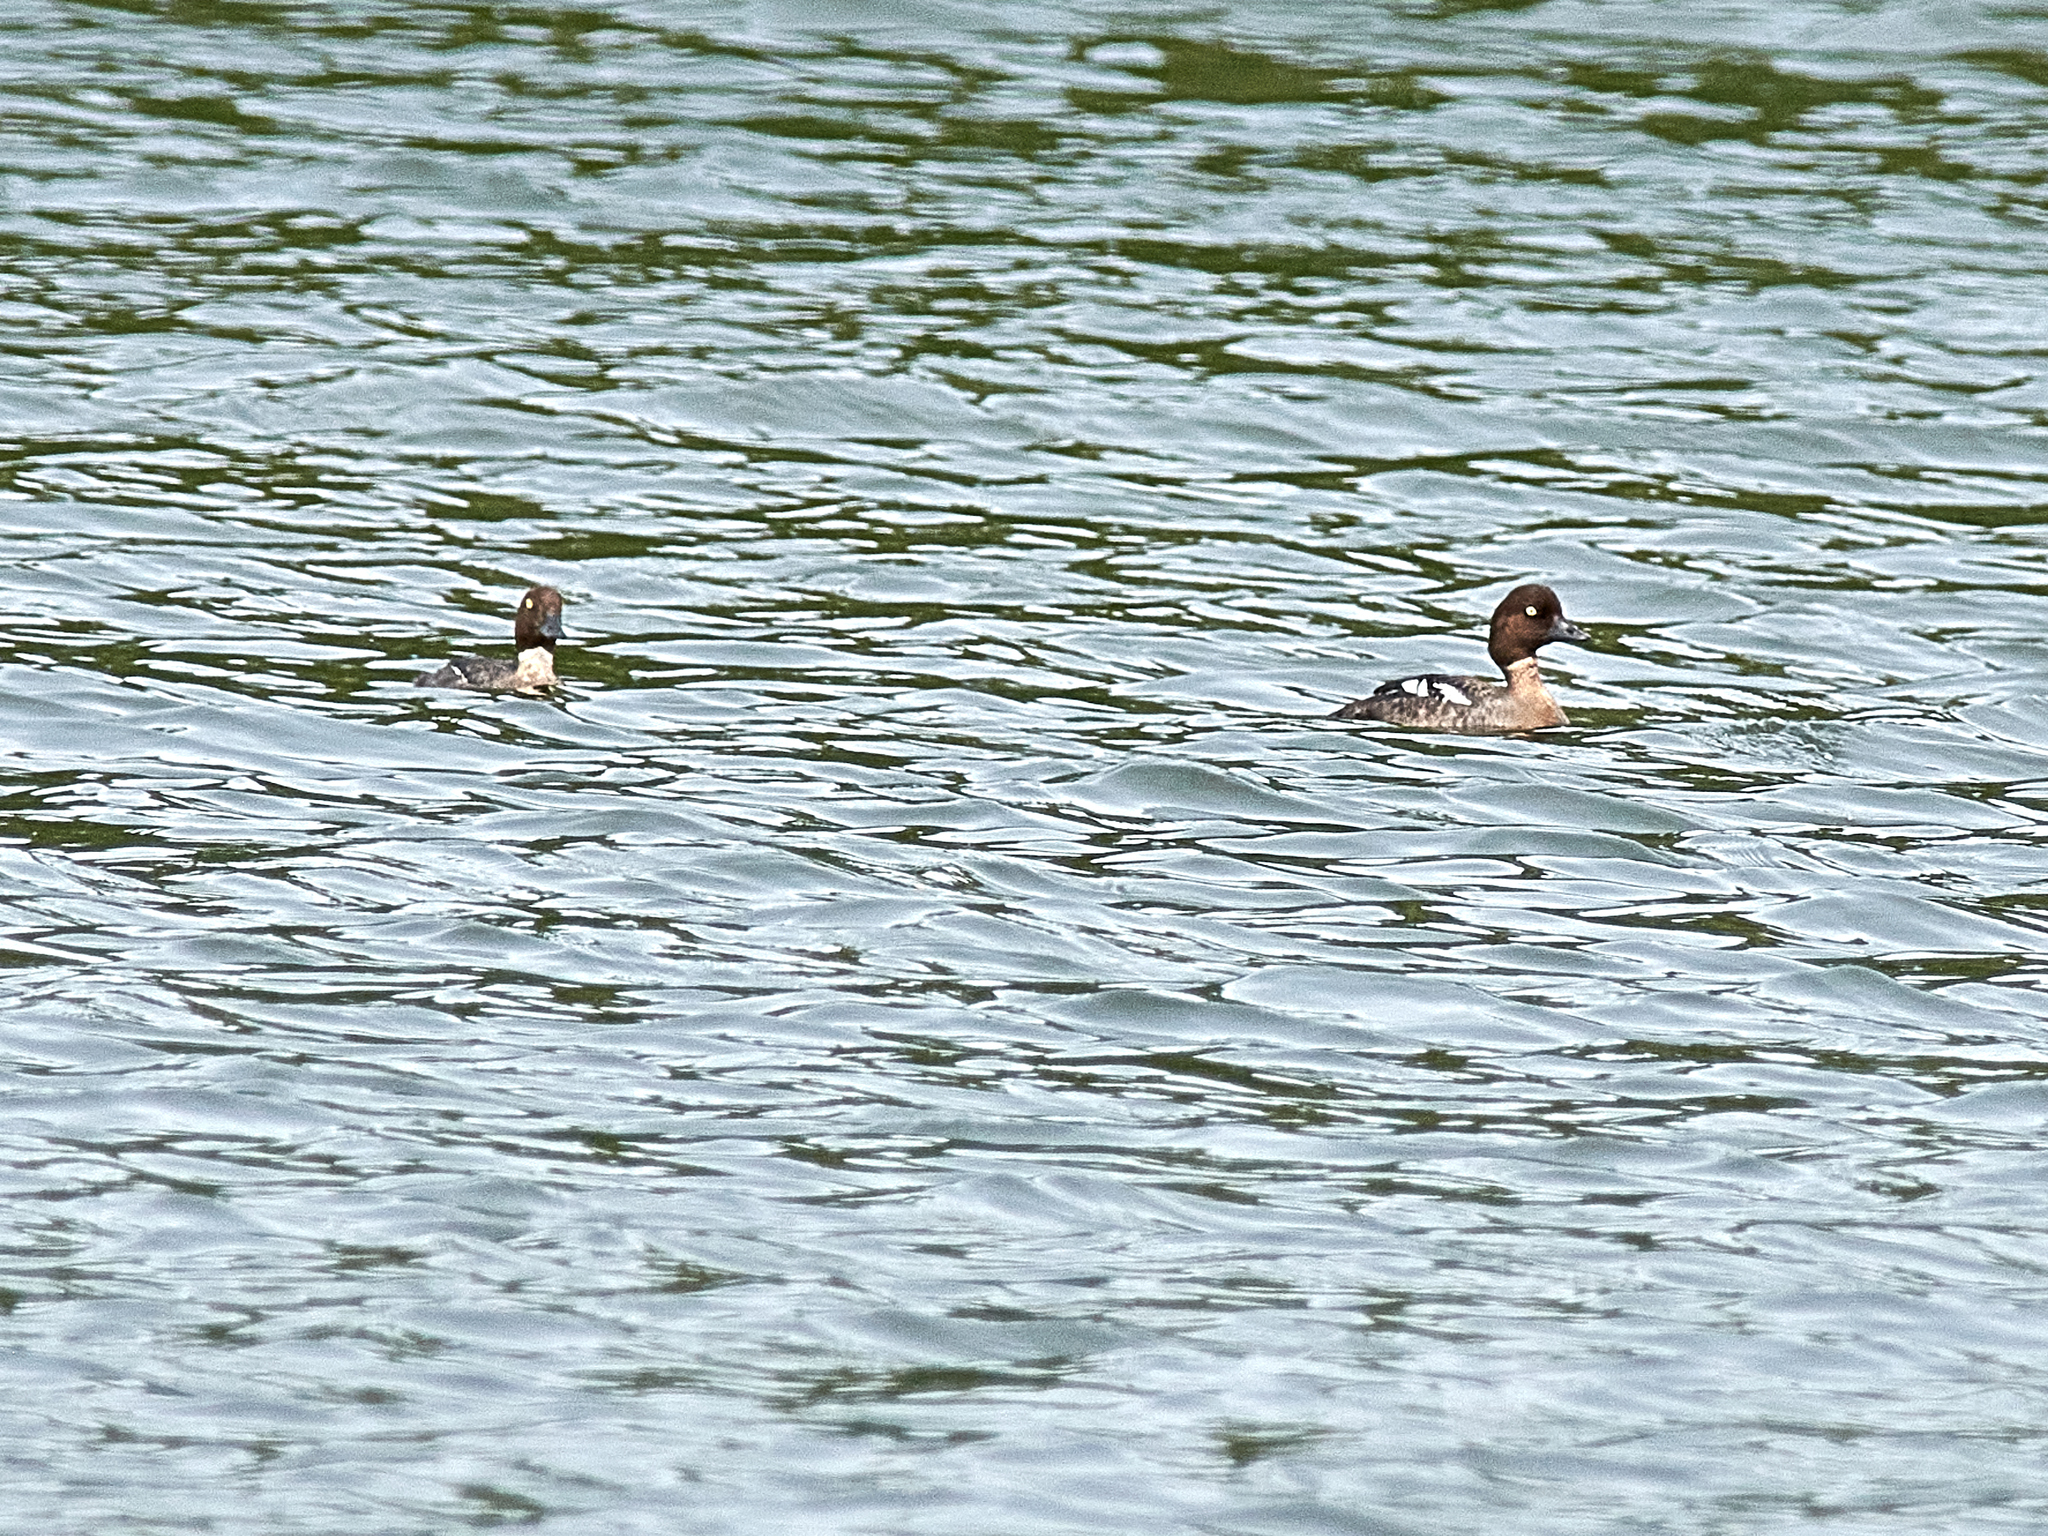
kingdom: Animalia
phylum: Chordata
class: Aves
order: Anseriformes
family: Anatidae
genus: Bucephala
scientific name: Bucephala clangula
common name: Common goldeneye
